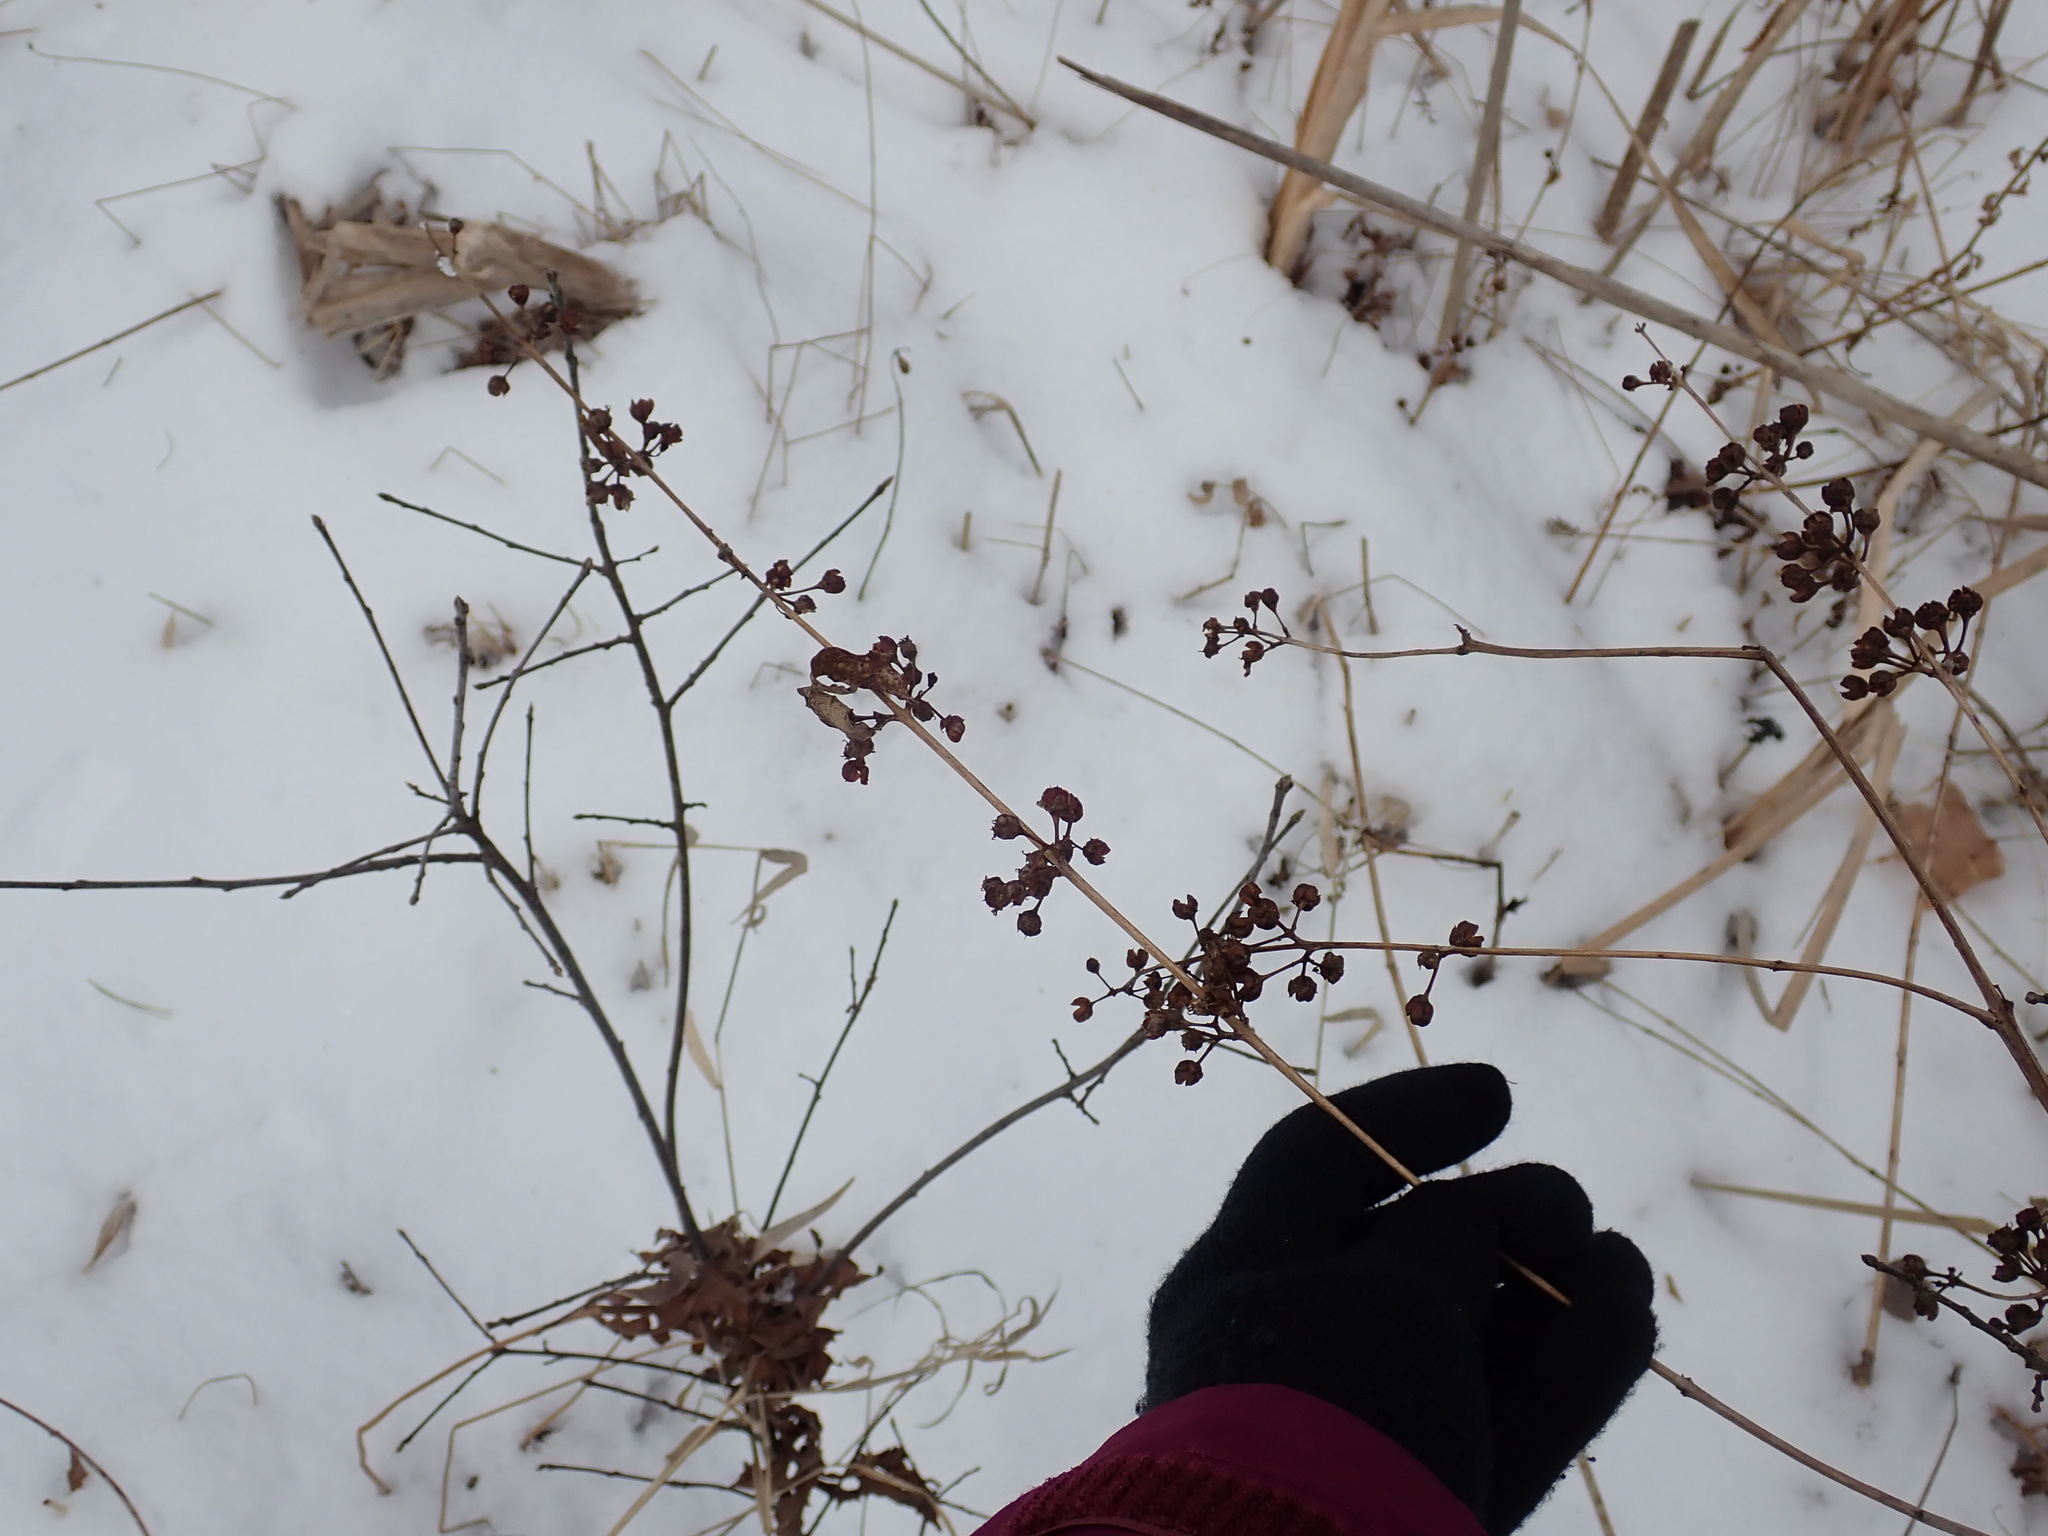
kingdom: Plantae
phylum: Tracheophyta
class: Magnoliopsida
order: Myrtales
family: Lythraceae
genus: Decodon
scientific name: Decodon verticillatus
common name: Hairy swamp loosestrife
